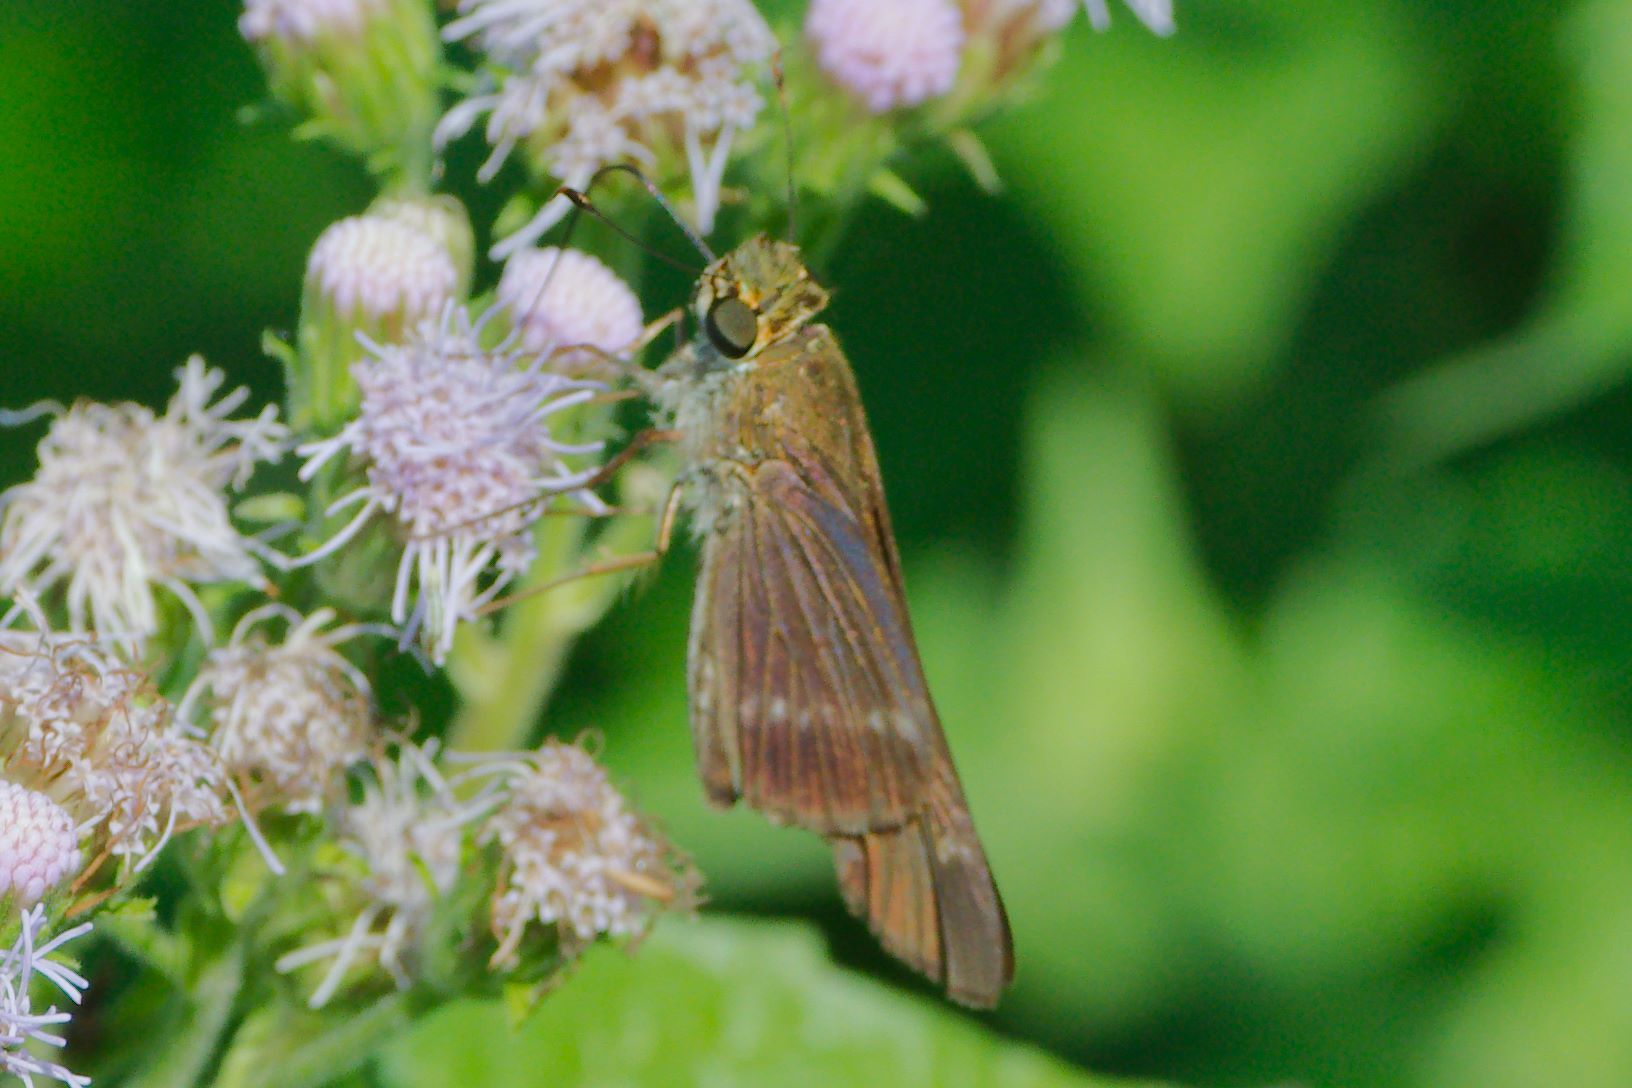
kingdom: Animalia
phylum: Arthropoda
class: Insecta
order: Lepidoptera
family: Hesperiidae
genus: Turesis
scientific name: Turesis lucas
